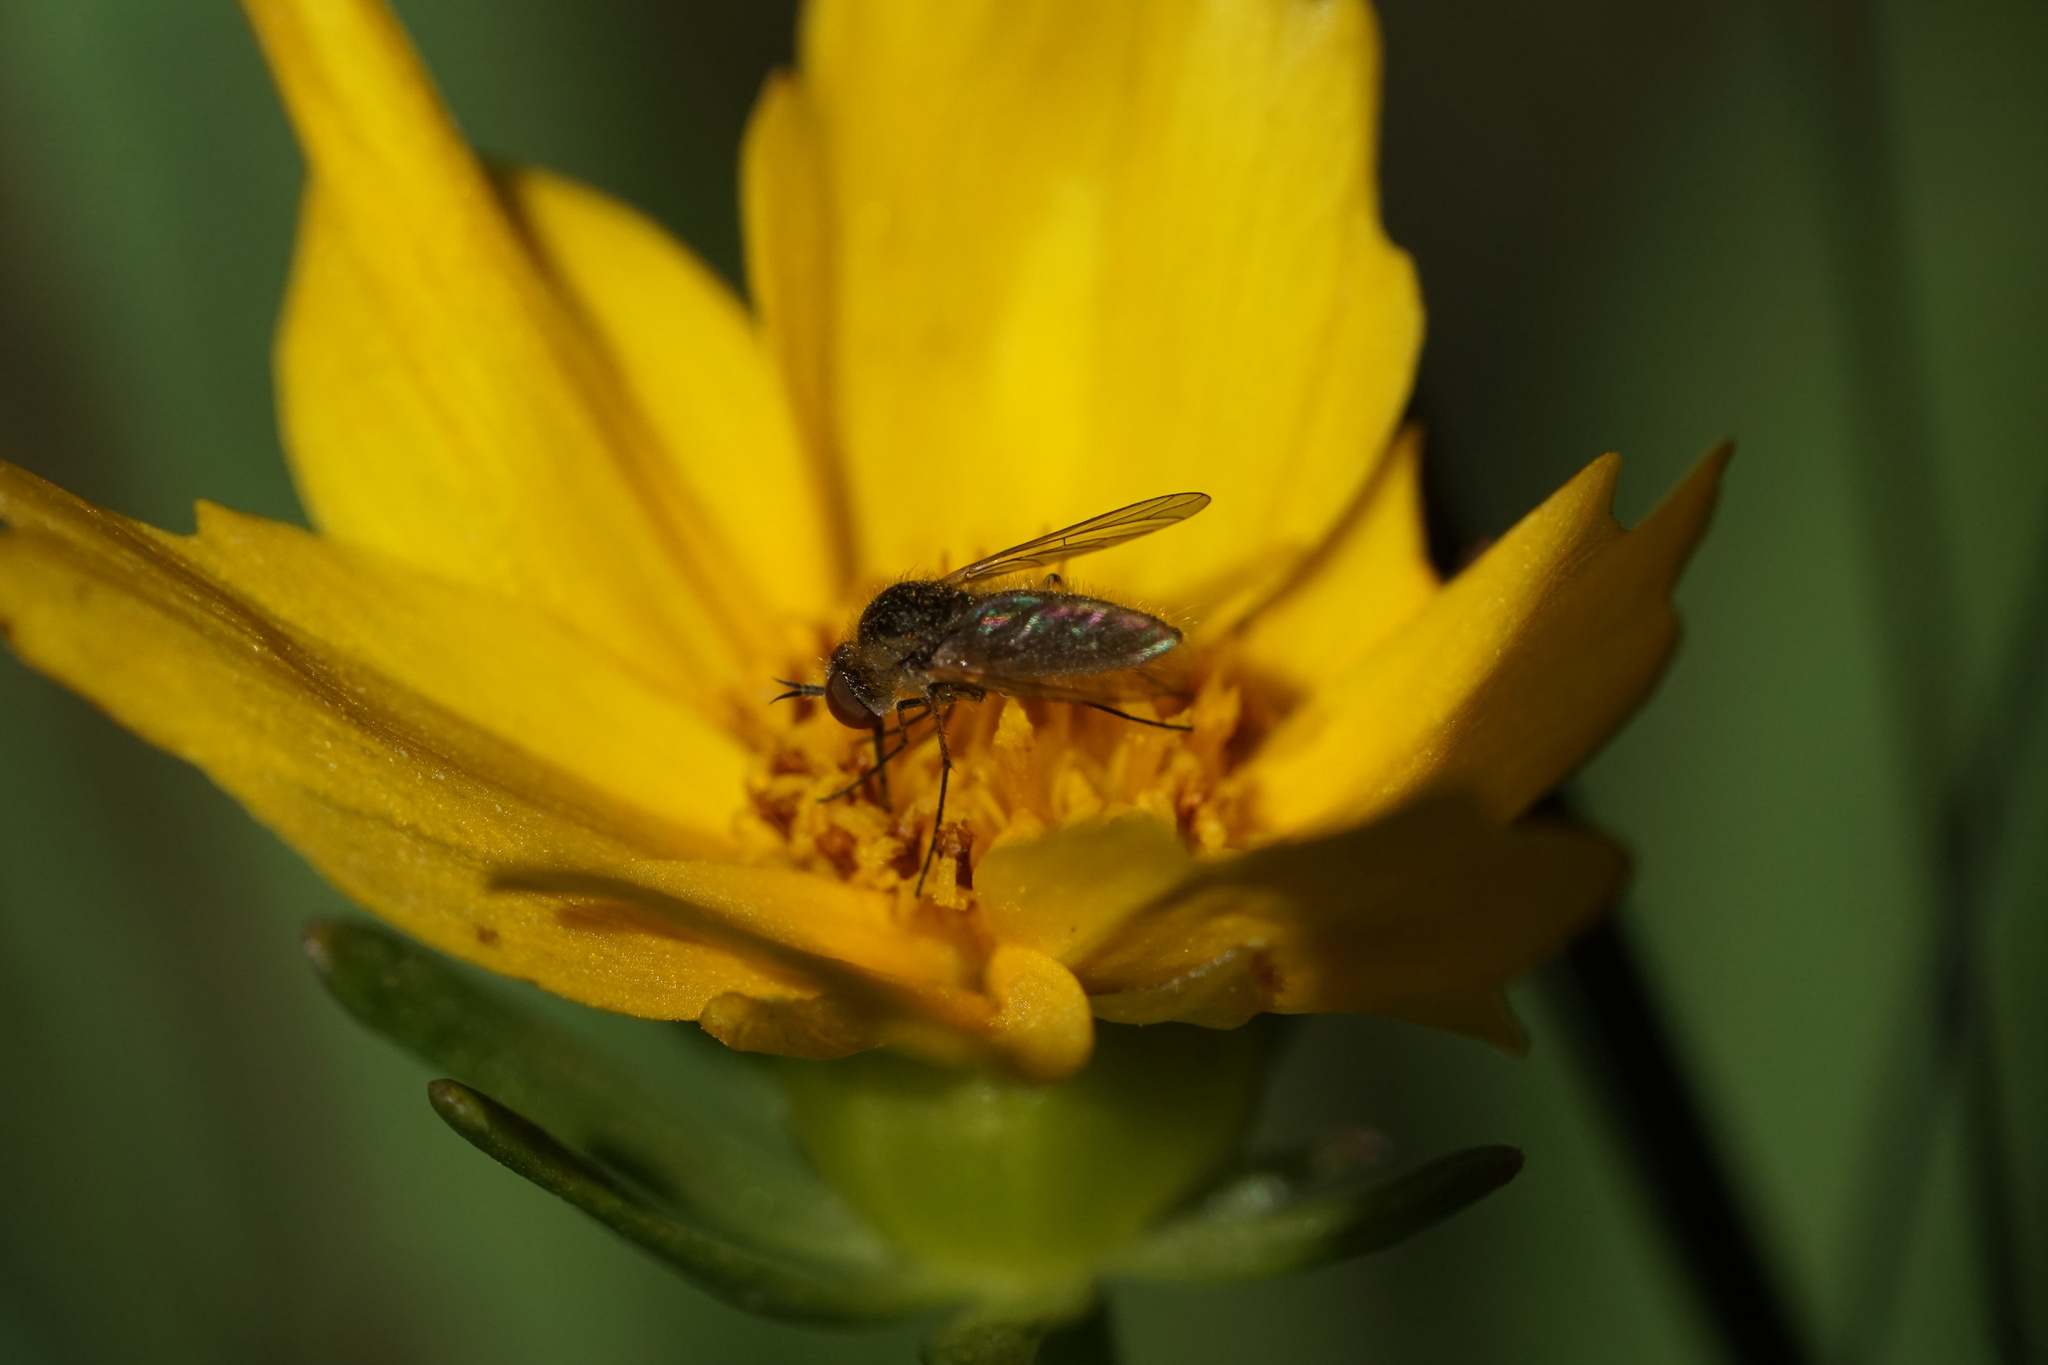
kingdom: Animalia
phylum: Arthropoda
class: Insecta
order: Diptera
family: Bombyliidae
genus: Geron
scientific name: Geron calvus
